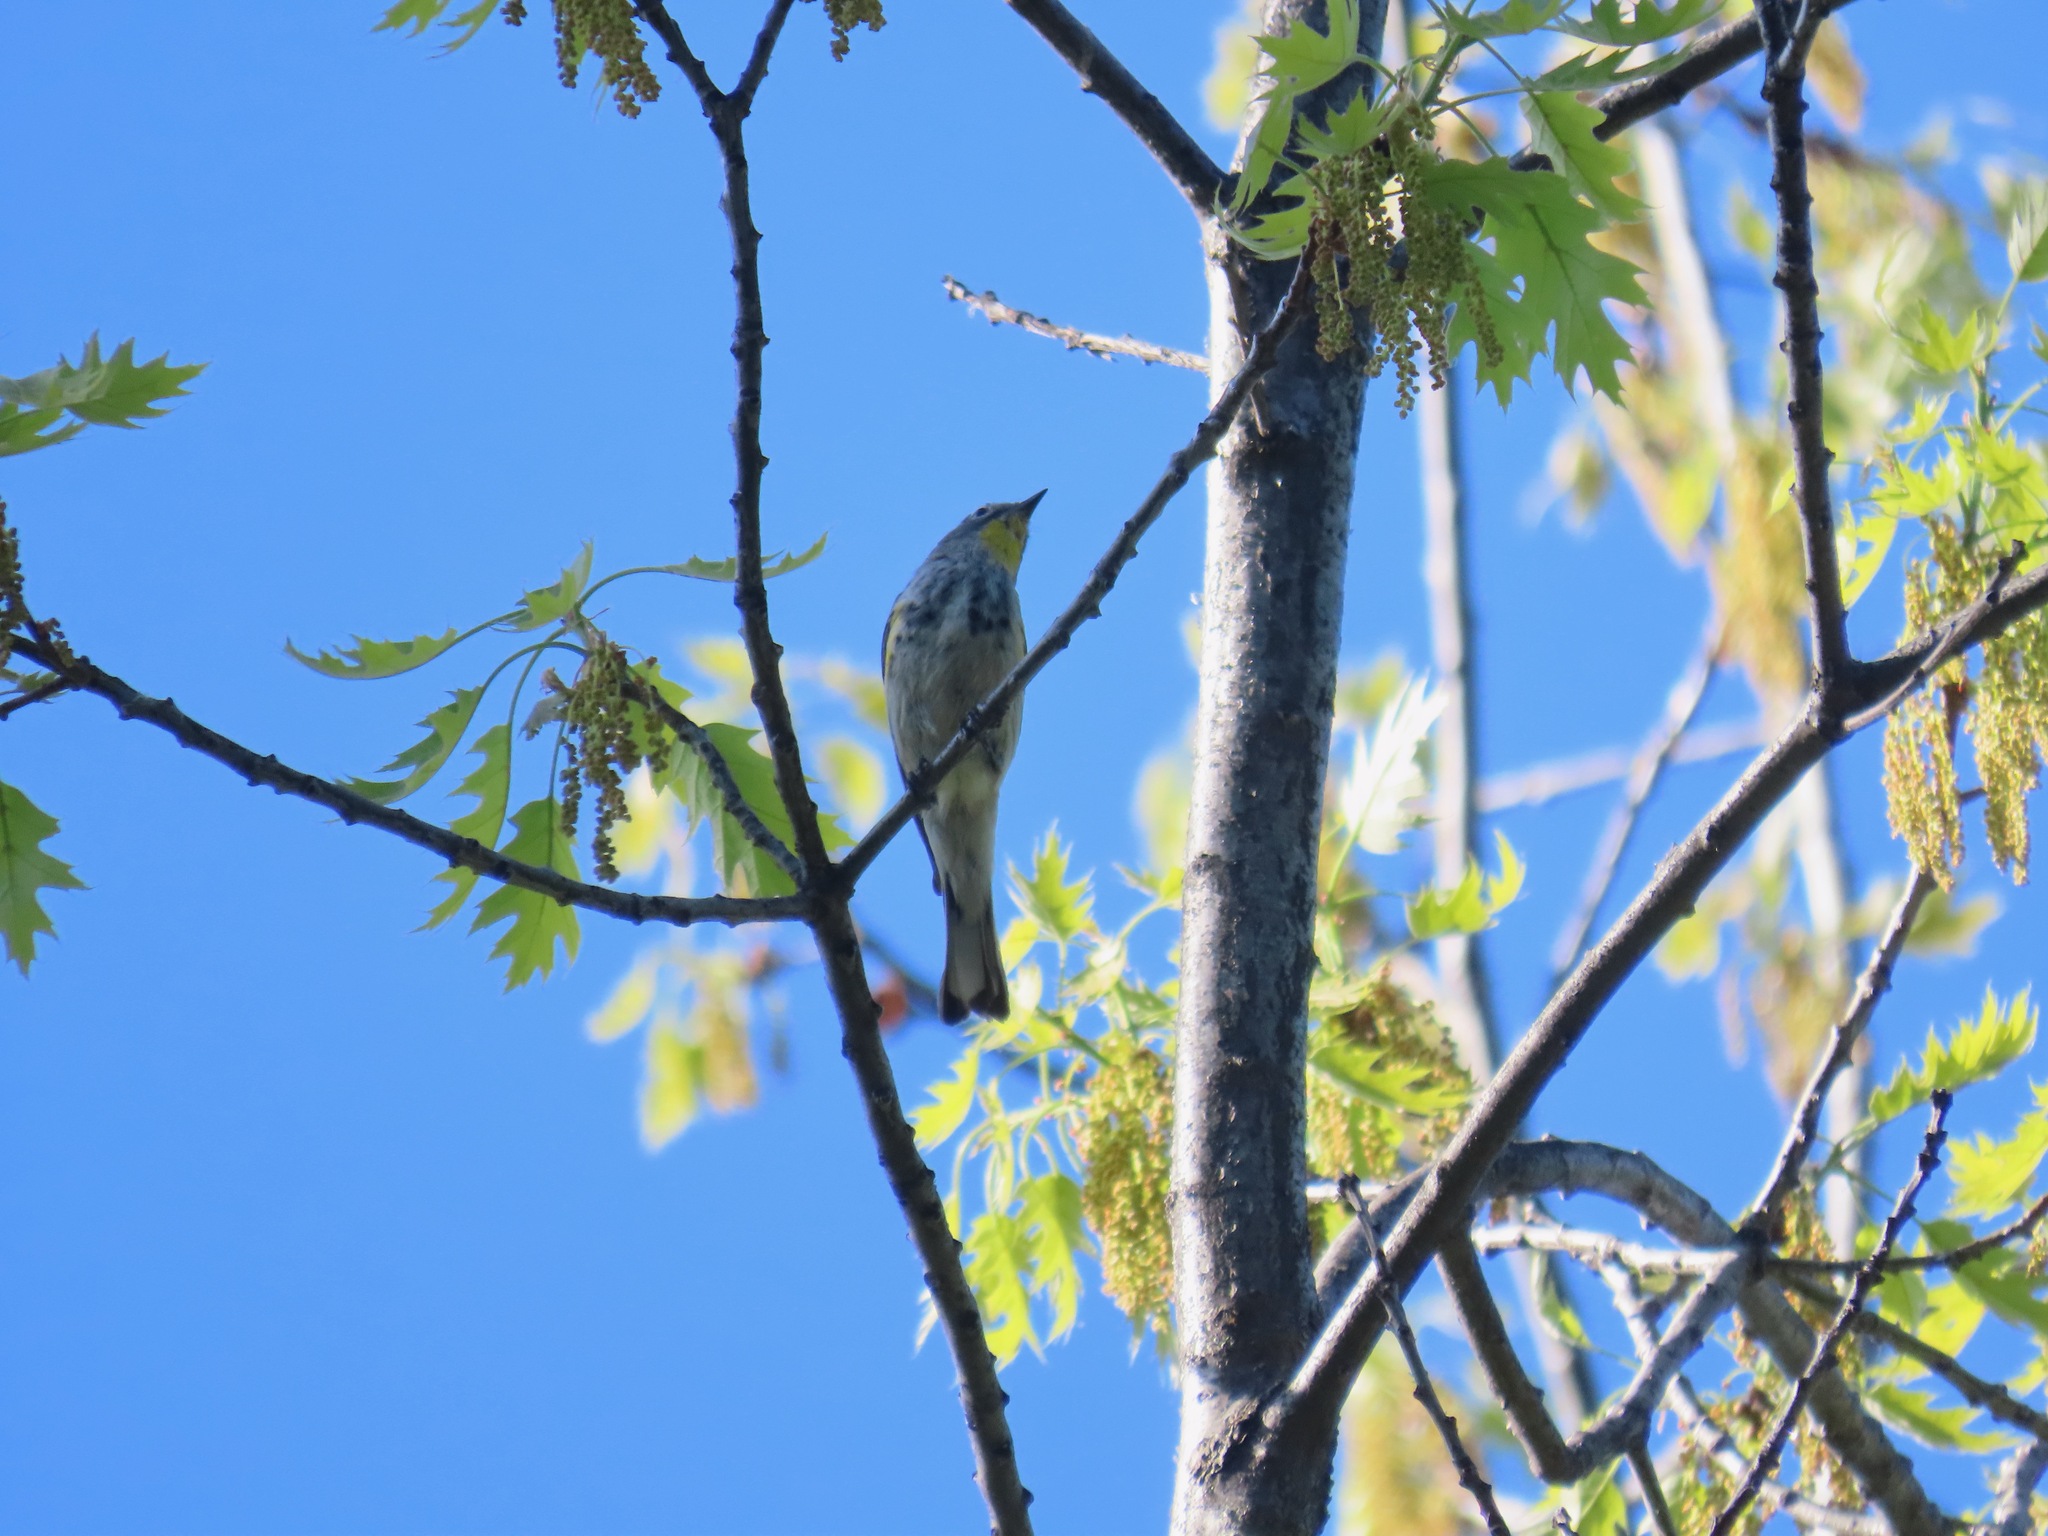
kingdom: Animalia
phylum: Chordata
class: Aves
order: Passeriformes
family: Parulidae
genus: Setophaga
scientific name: Setophaga coronata
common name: Myrtle warbler
